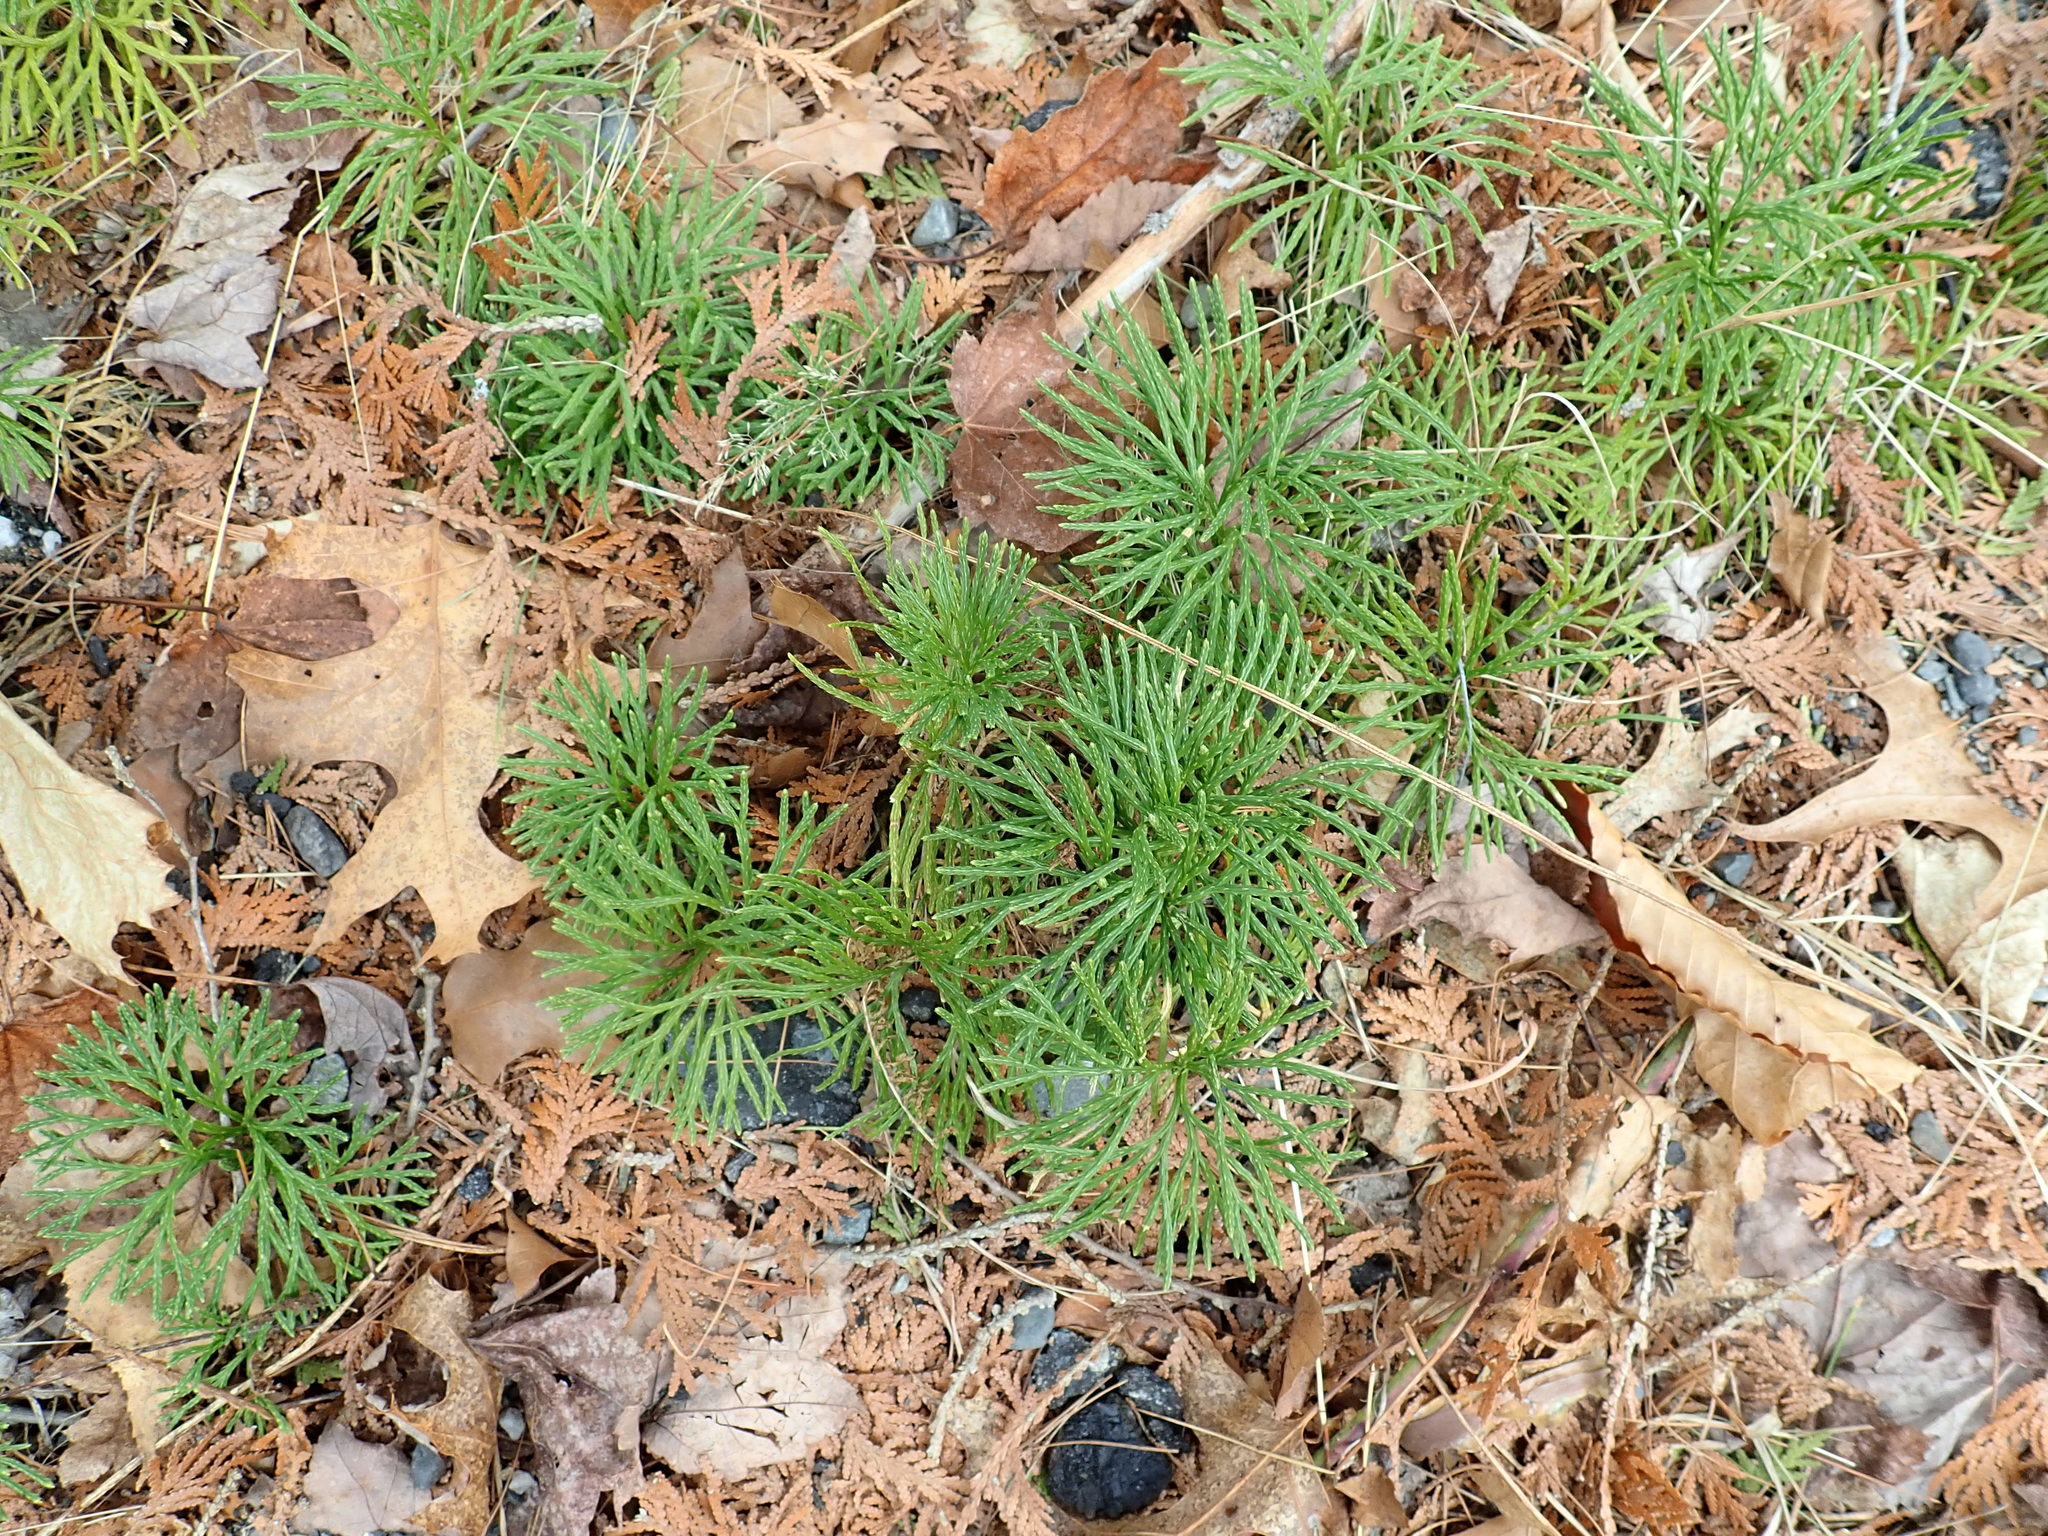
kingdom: Plantae
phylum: Tracheophyta
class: Lycopodiopsida
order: Lycopodiales
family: Lycopodiaceae
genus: Diphasiastrum
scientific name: Diphasiastrum digitatum
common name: Southern running-pine
